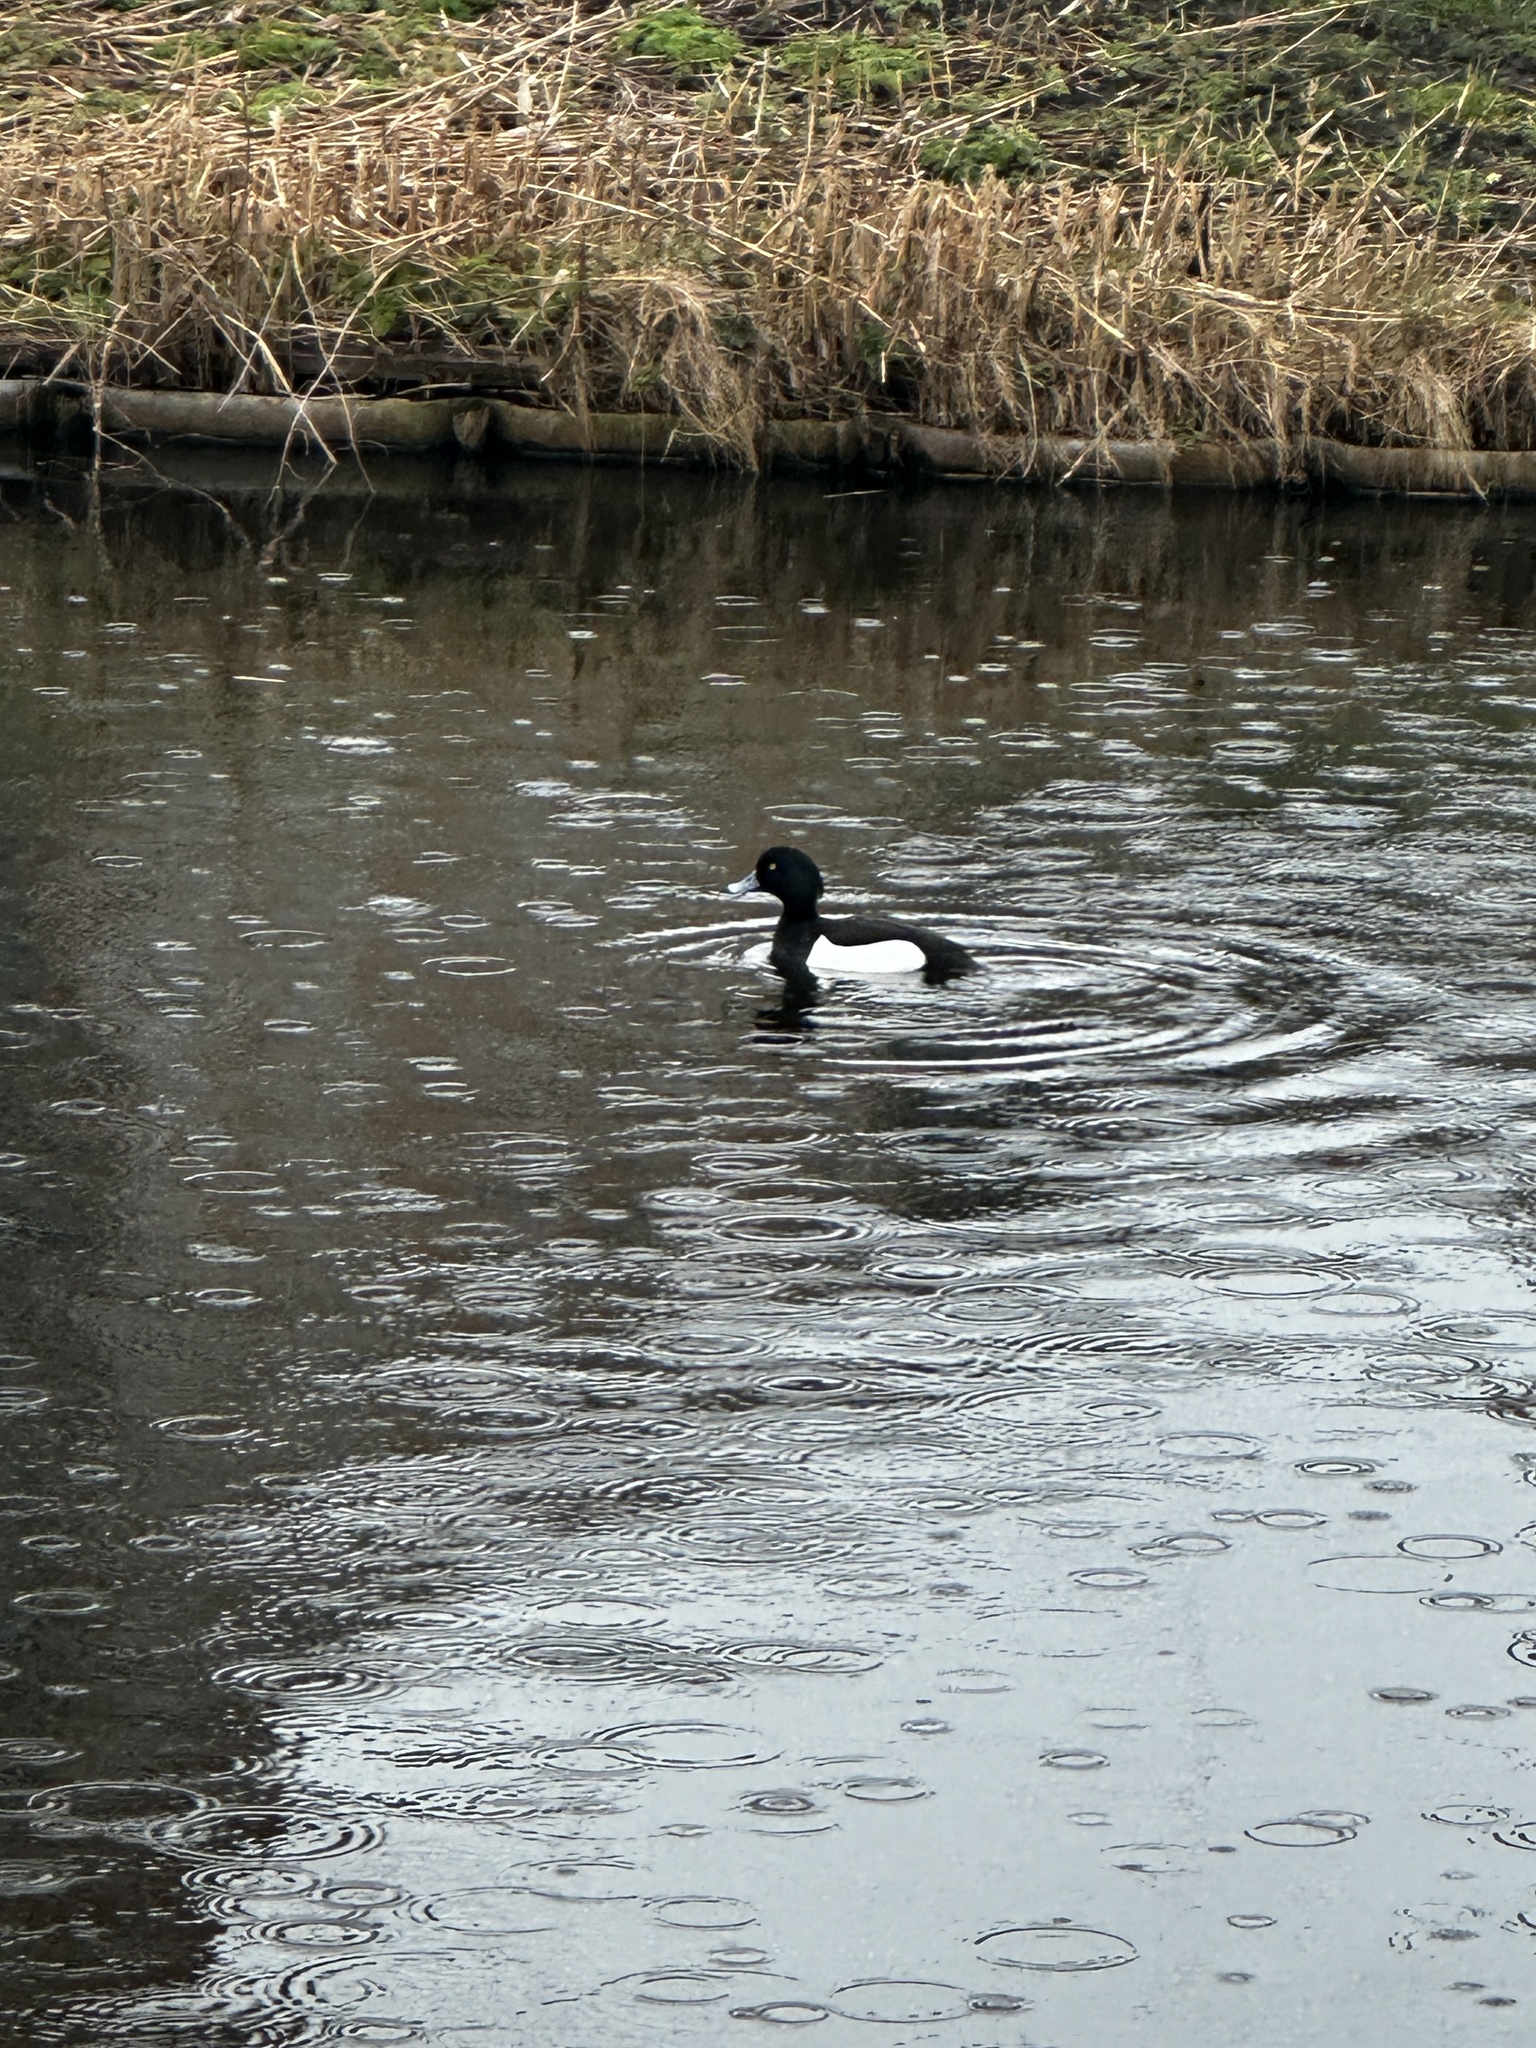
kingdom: Animalia
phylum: Chordata
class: Aves
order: Anseriformes
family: Anatidae
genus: Aythya
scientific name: Aythya fuligula
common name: Tufted duck
